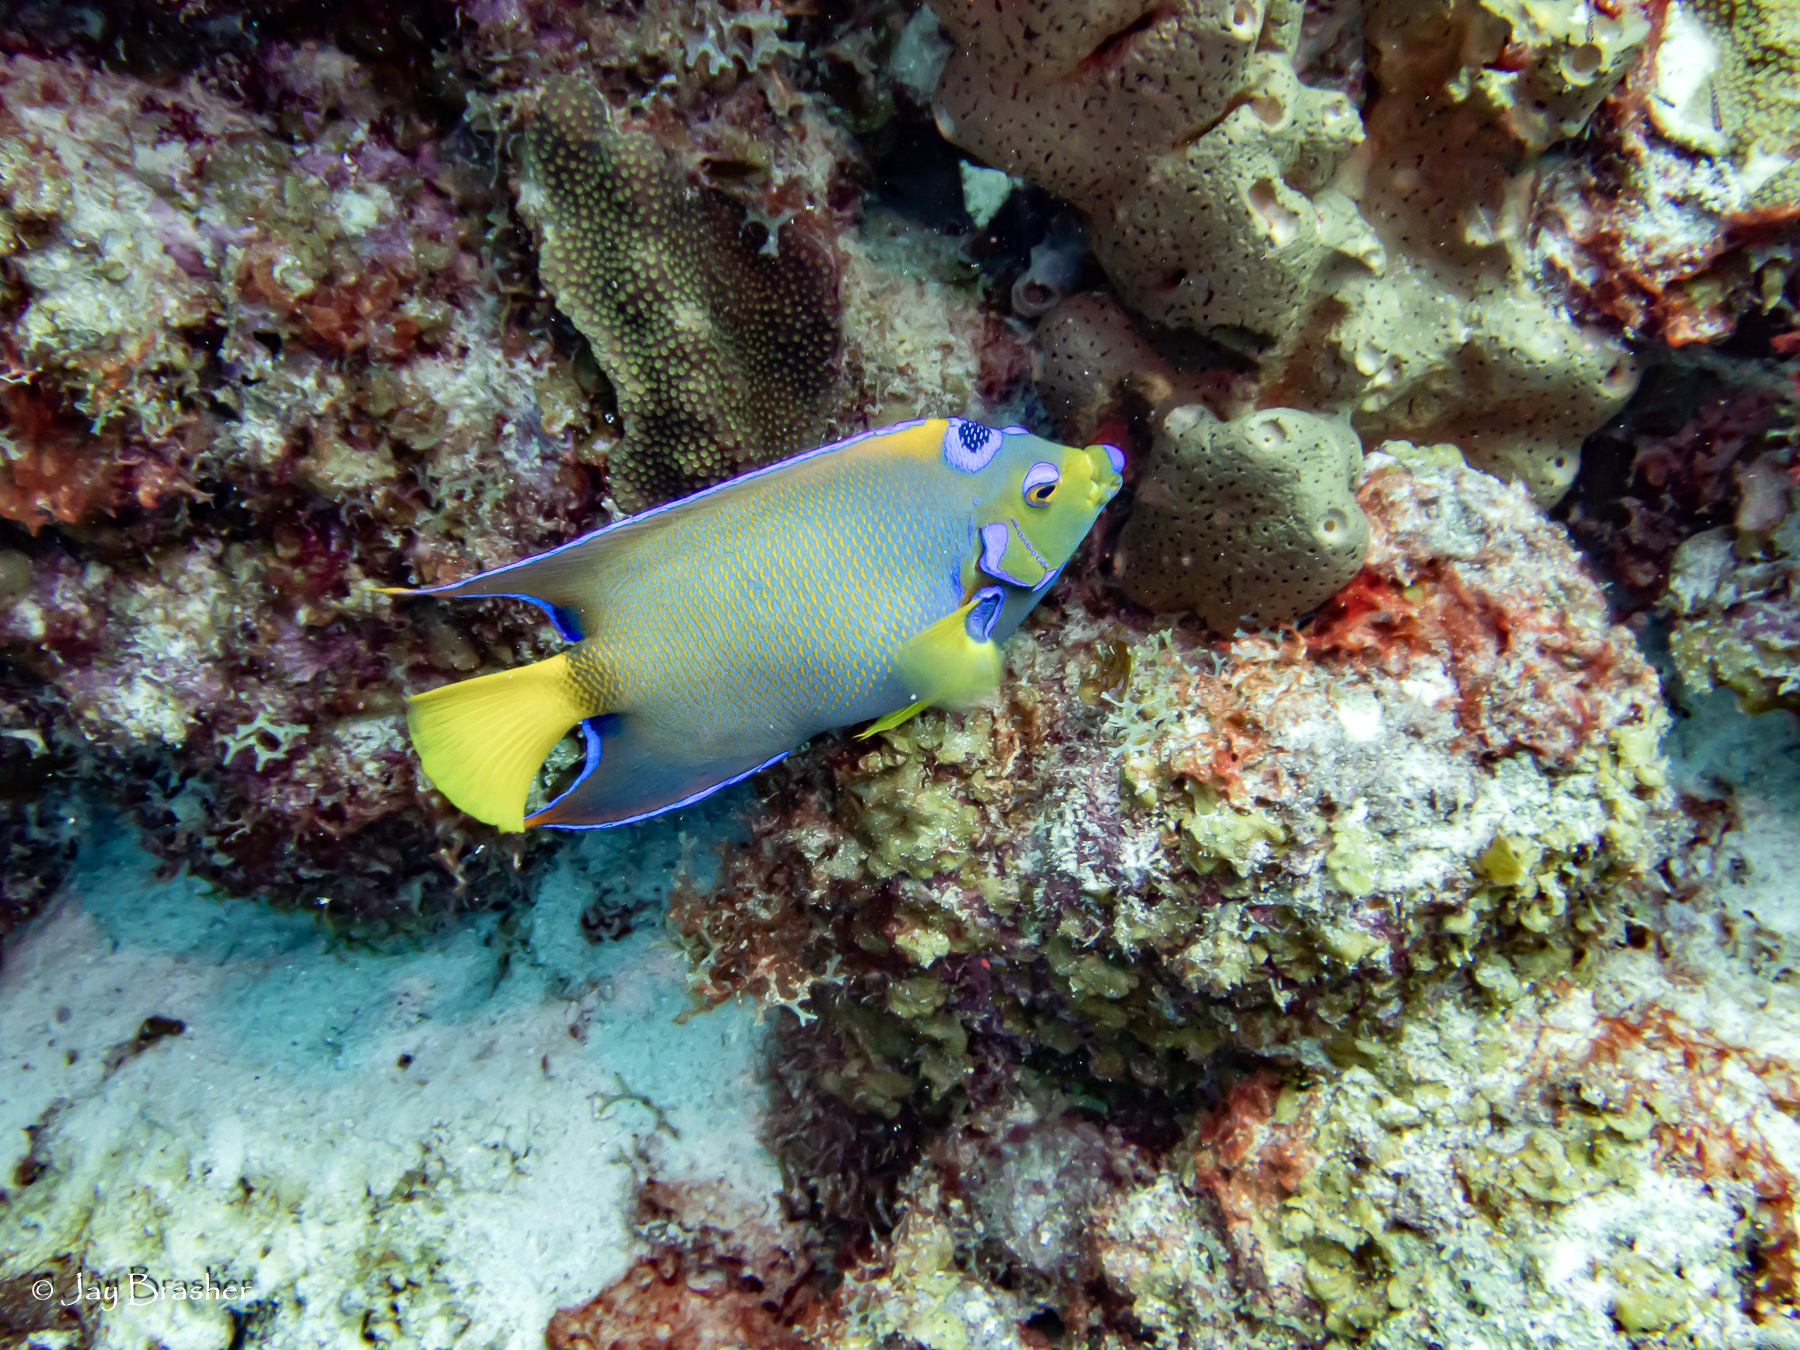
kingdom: Animalia
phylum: Chordata
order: Perciformes
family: Pomacanthidae
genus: Holacanthus
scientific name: Holacanthus ciliaris
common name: Queen angelfish
